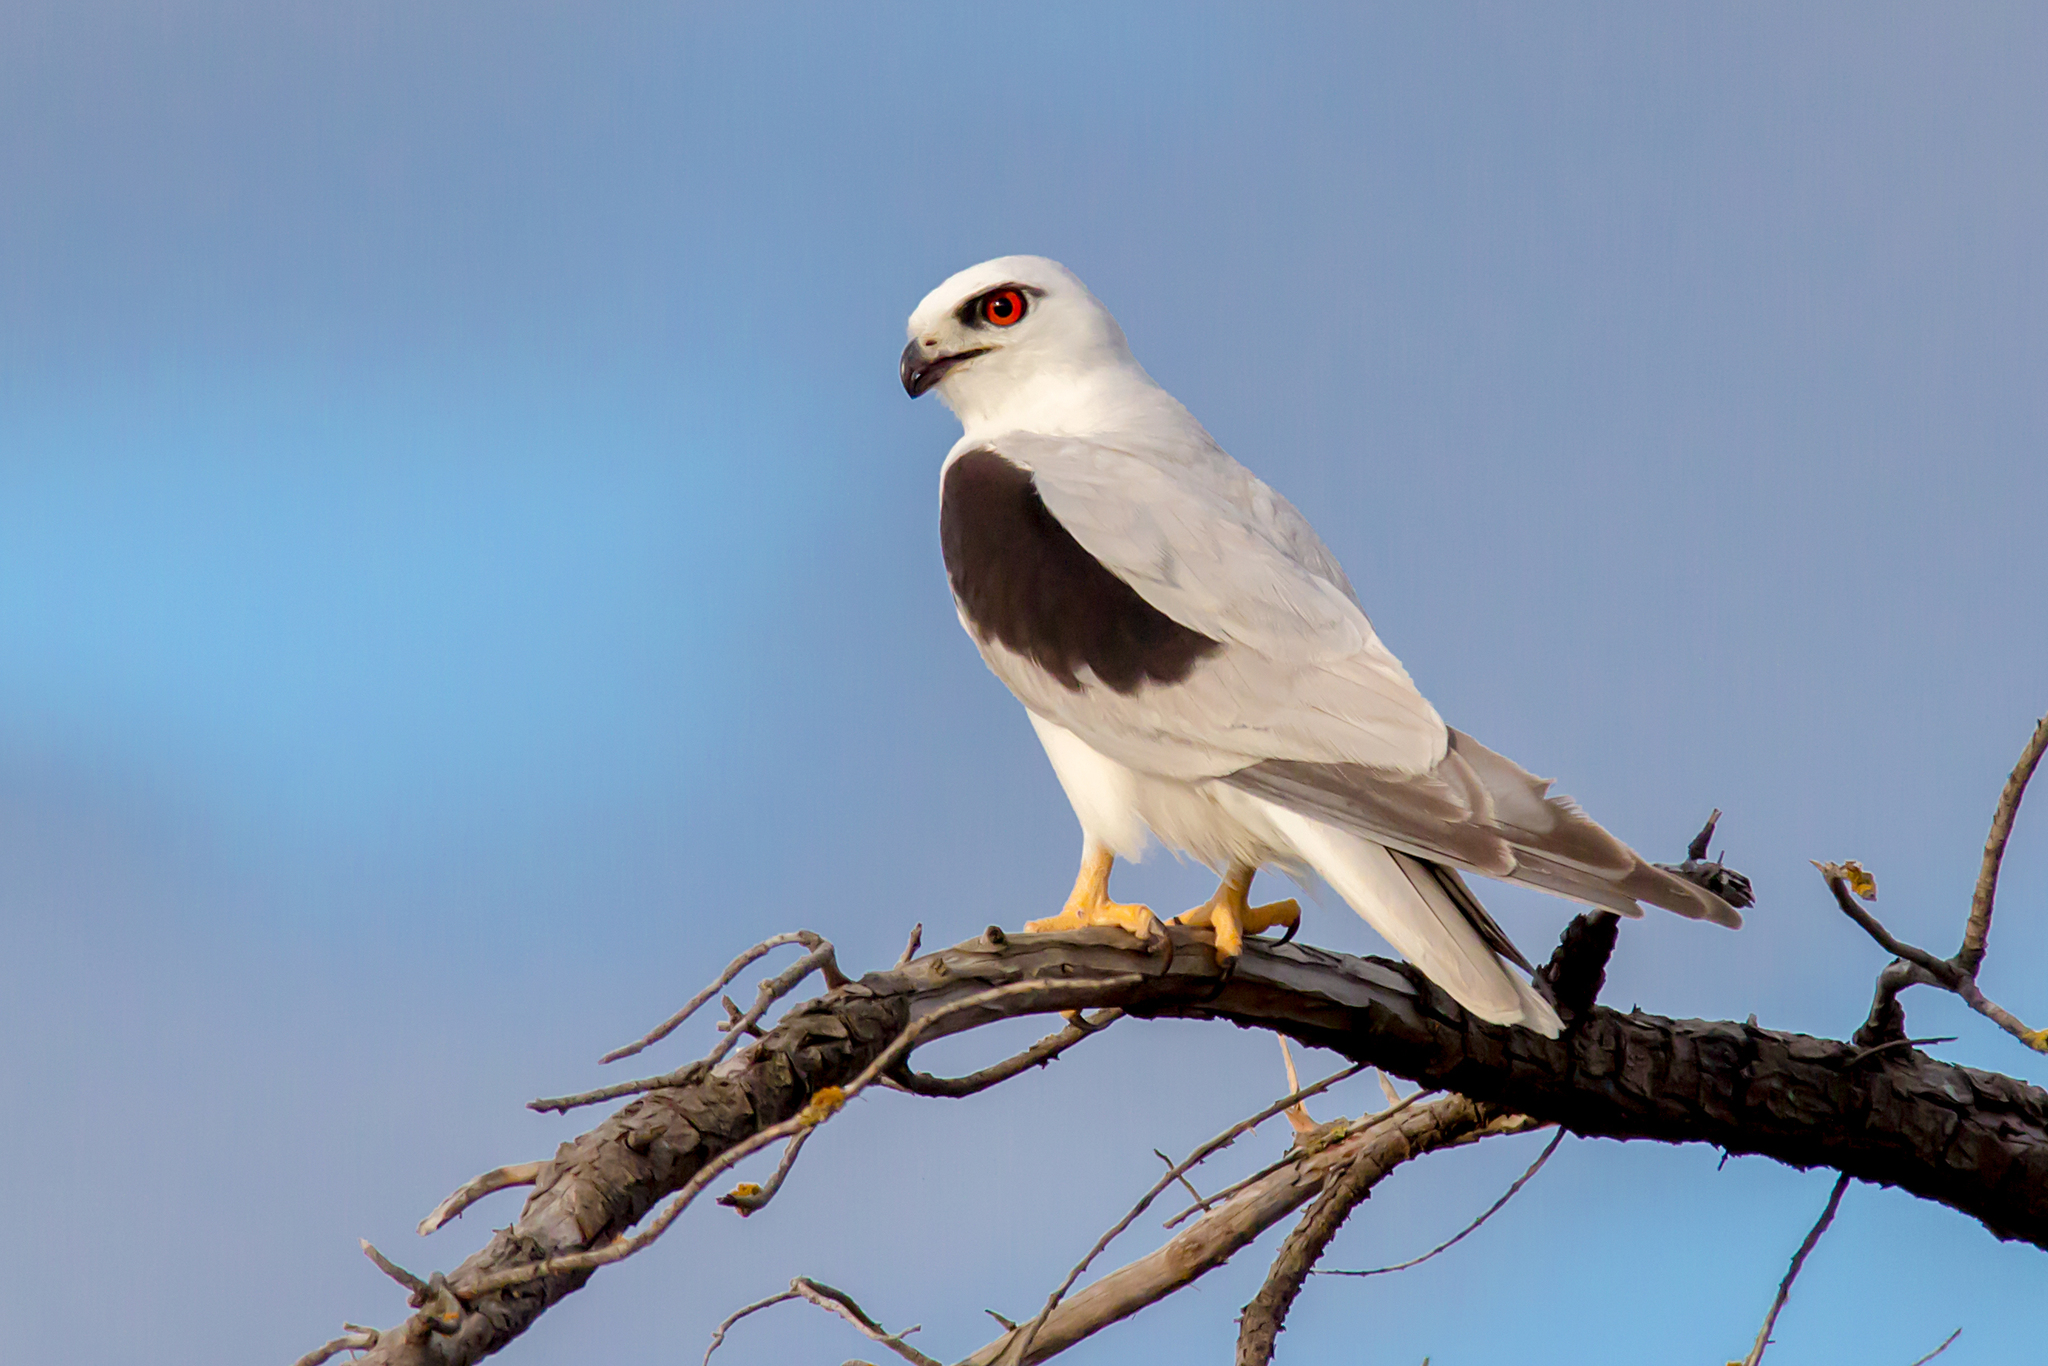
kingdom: Animalia
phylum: Chordata
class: Aves
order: Accipitriformes
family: Accipitridae
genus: Elanus
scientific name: Elanus axillaris
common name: Black-shouldered kite
